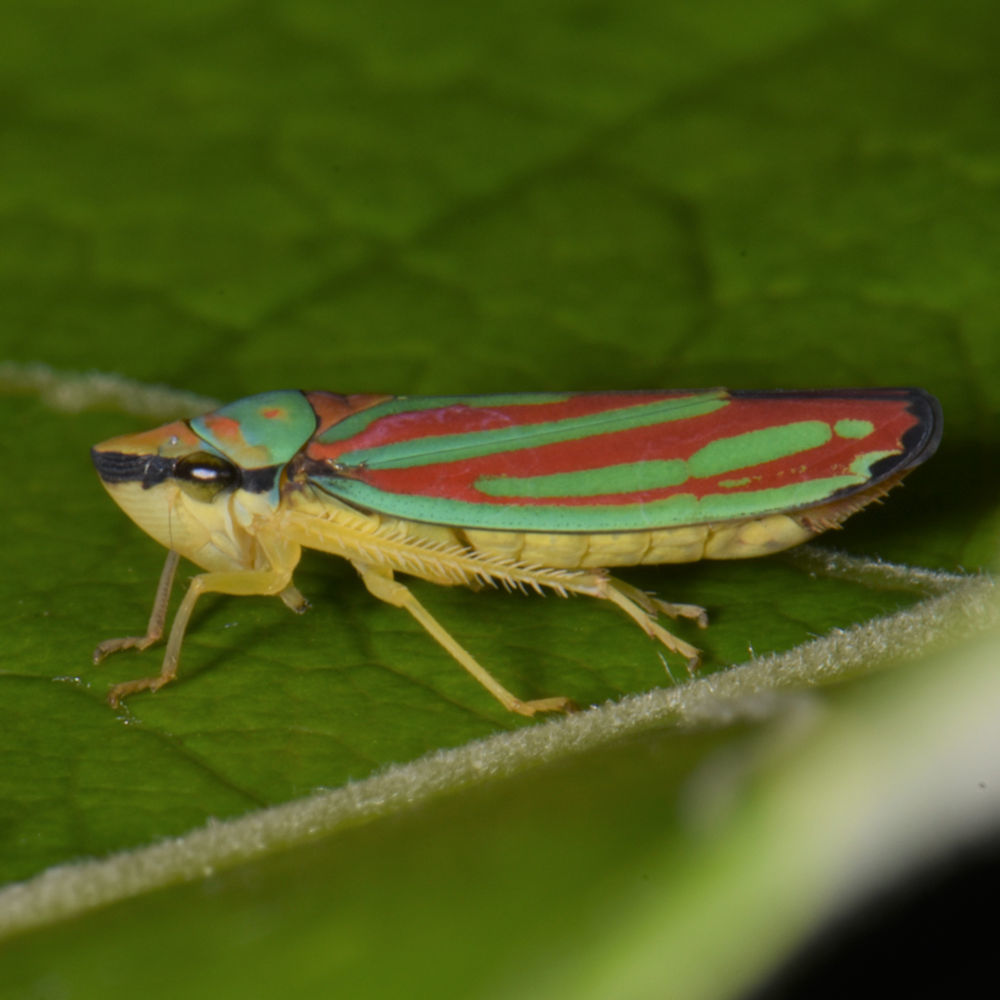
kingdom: Animalia
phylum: Arthropoda
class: Insecta
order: Hemiptera
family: Cicadellidae
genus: Graphocephala
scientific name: Graphocephala coccinea
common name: Candy-striped leafhopper
